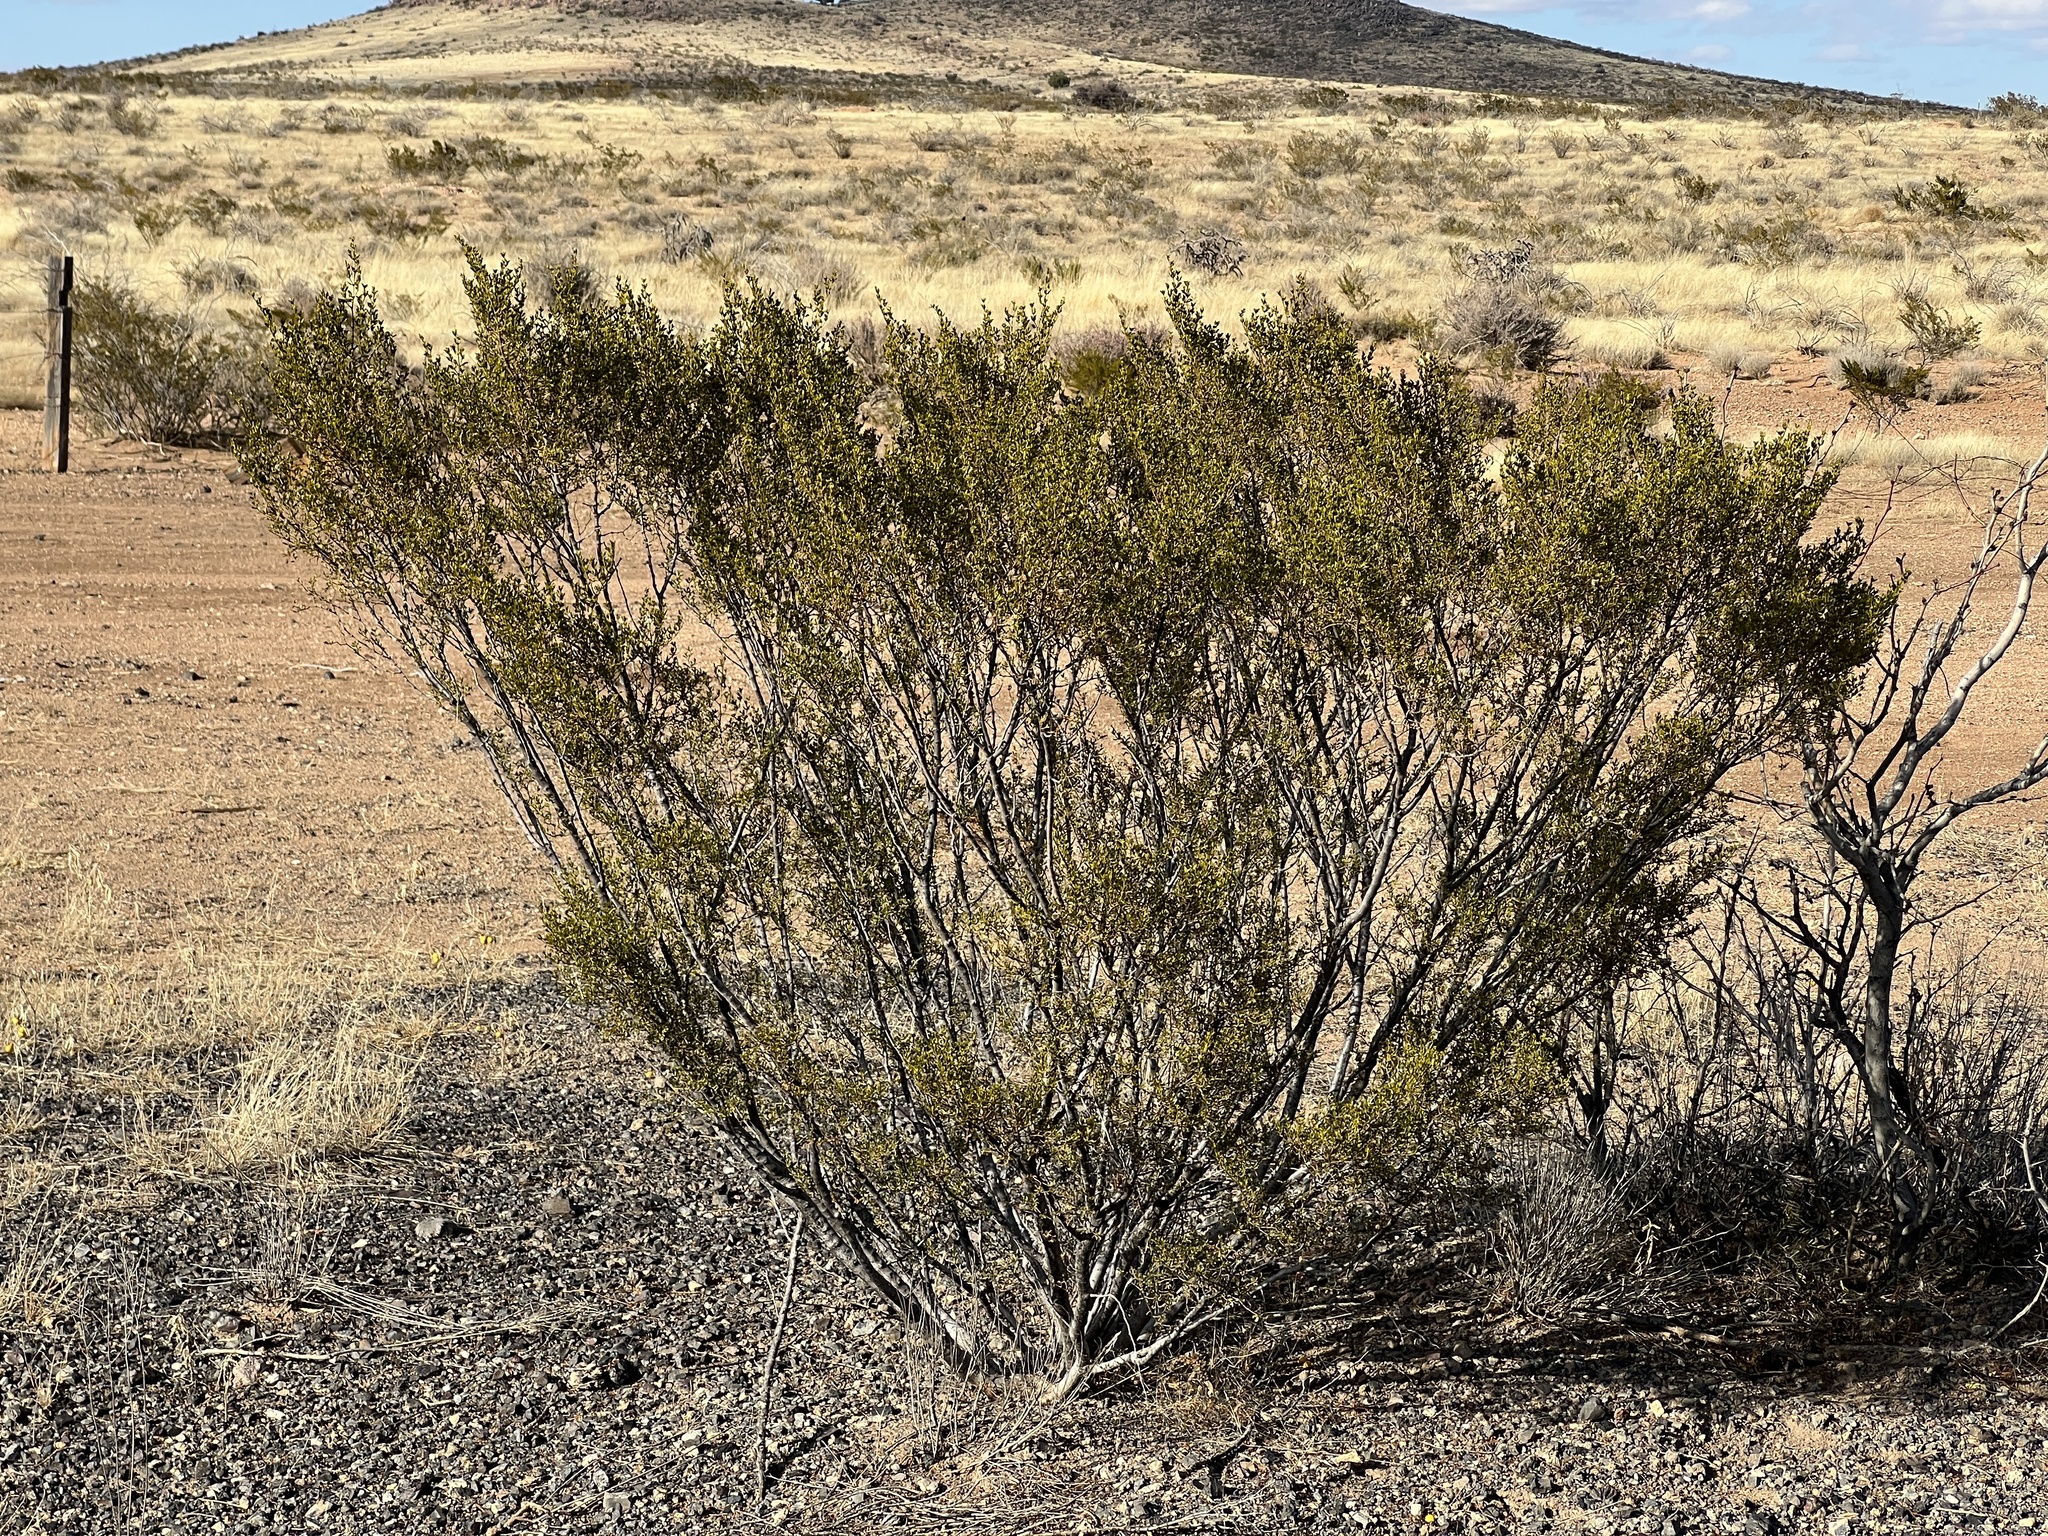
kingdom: Plantae
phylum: Tracheophyta
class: Magnoliopsida
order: Zygophyllales
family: Zygophyllaceae
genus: Larrea
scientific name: Larrea tridentata
